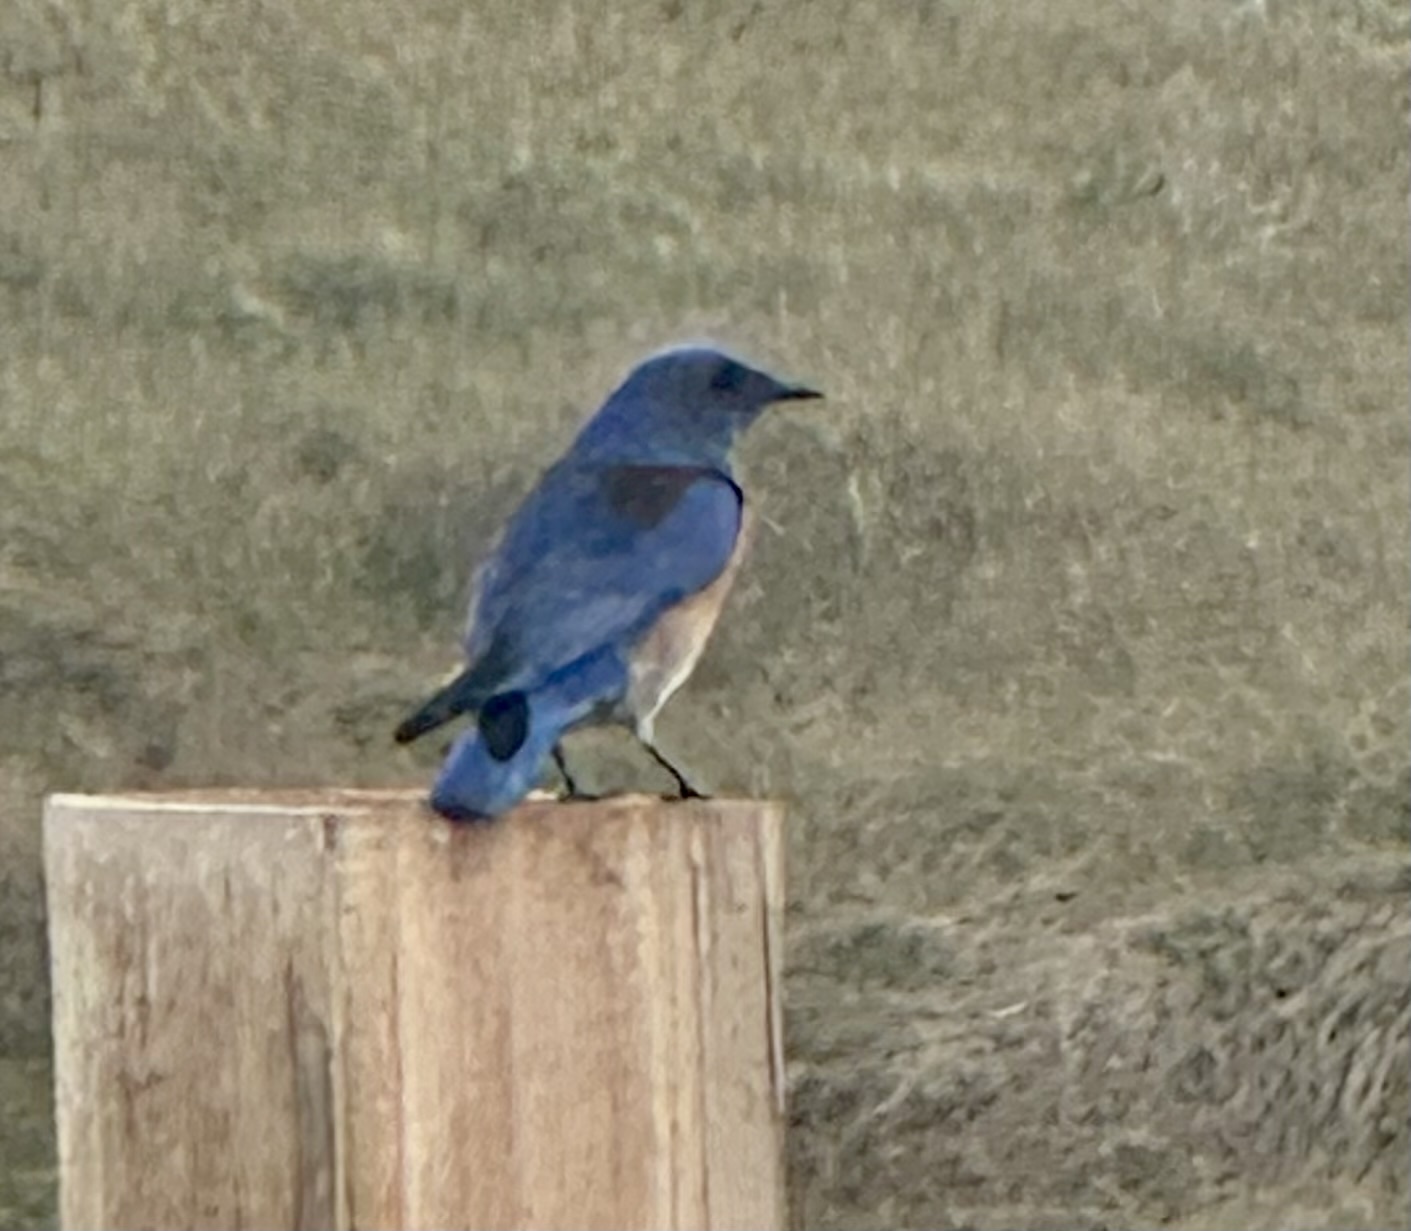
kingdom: Animalia
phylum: Chordata
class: Aves
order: Passeriformes
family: Turdidae
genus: Sialia
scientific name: Sialia mexicana
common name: Western bluebird
